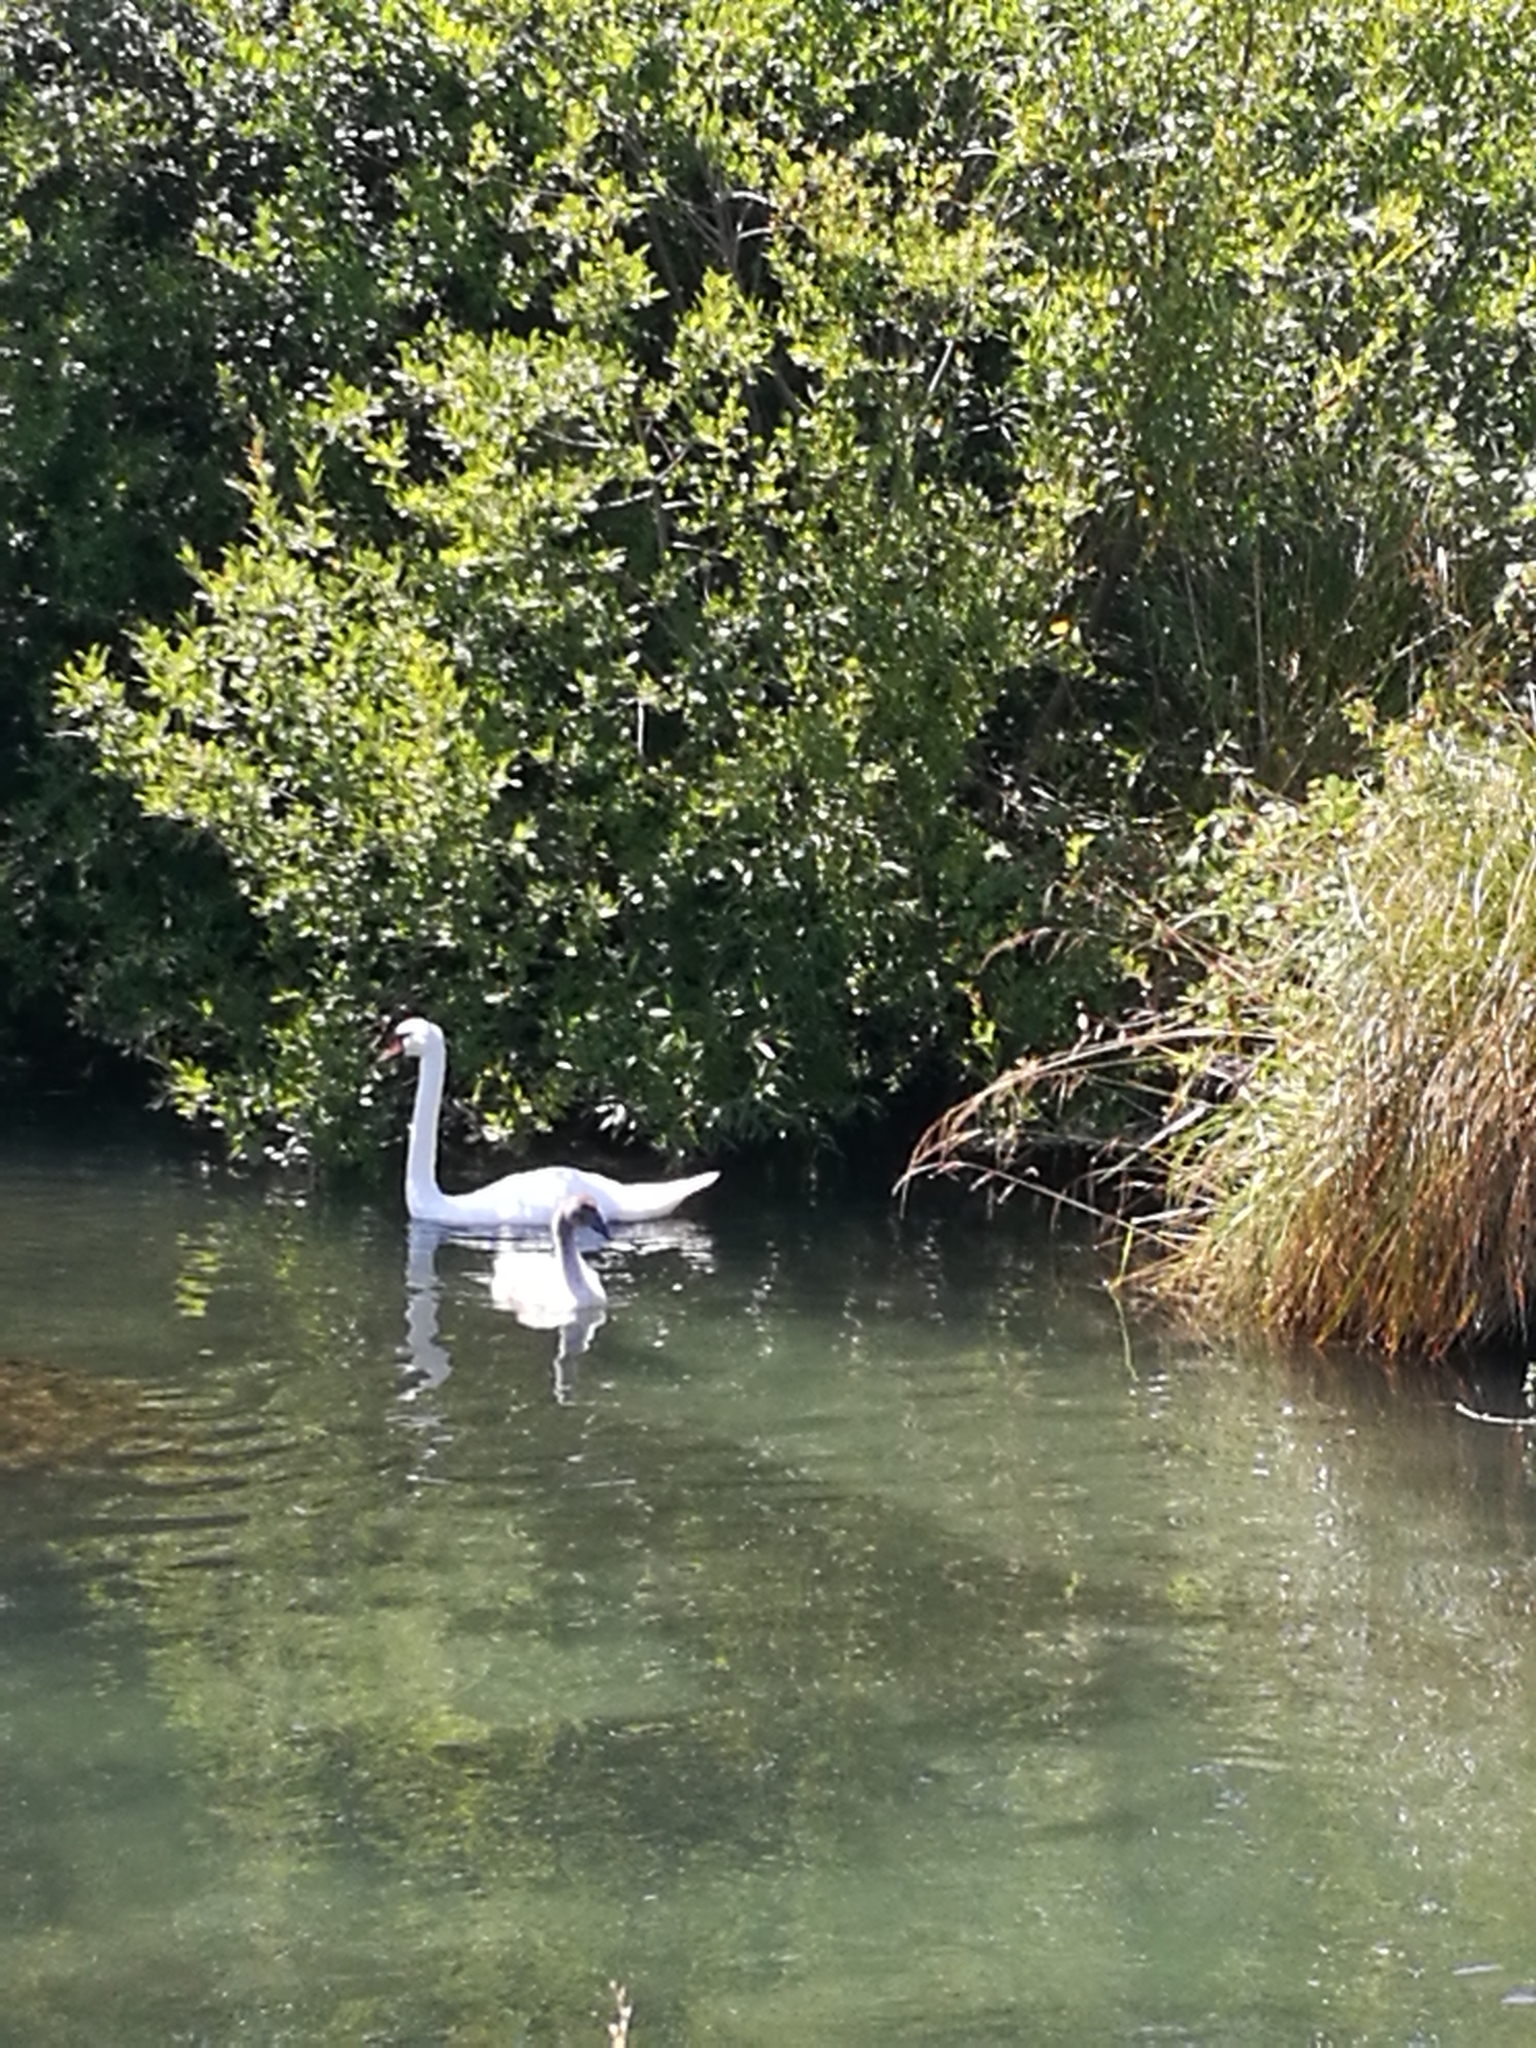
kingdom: Animalia
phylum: Chordata
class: Aves
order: Anseriformes
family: Anatidae
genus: Cygnus
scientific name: Cygnus olor
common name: Mute swan
